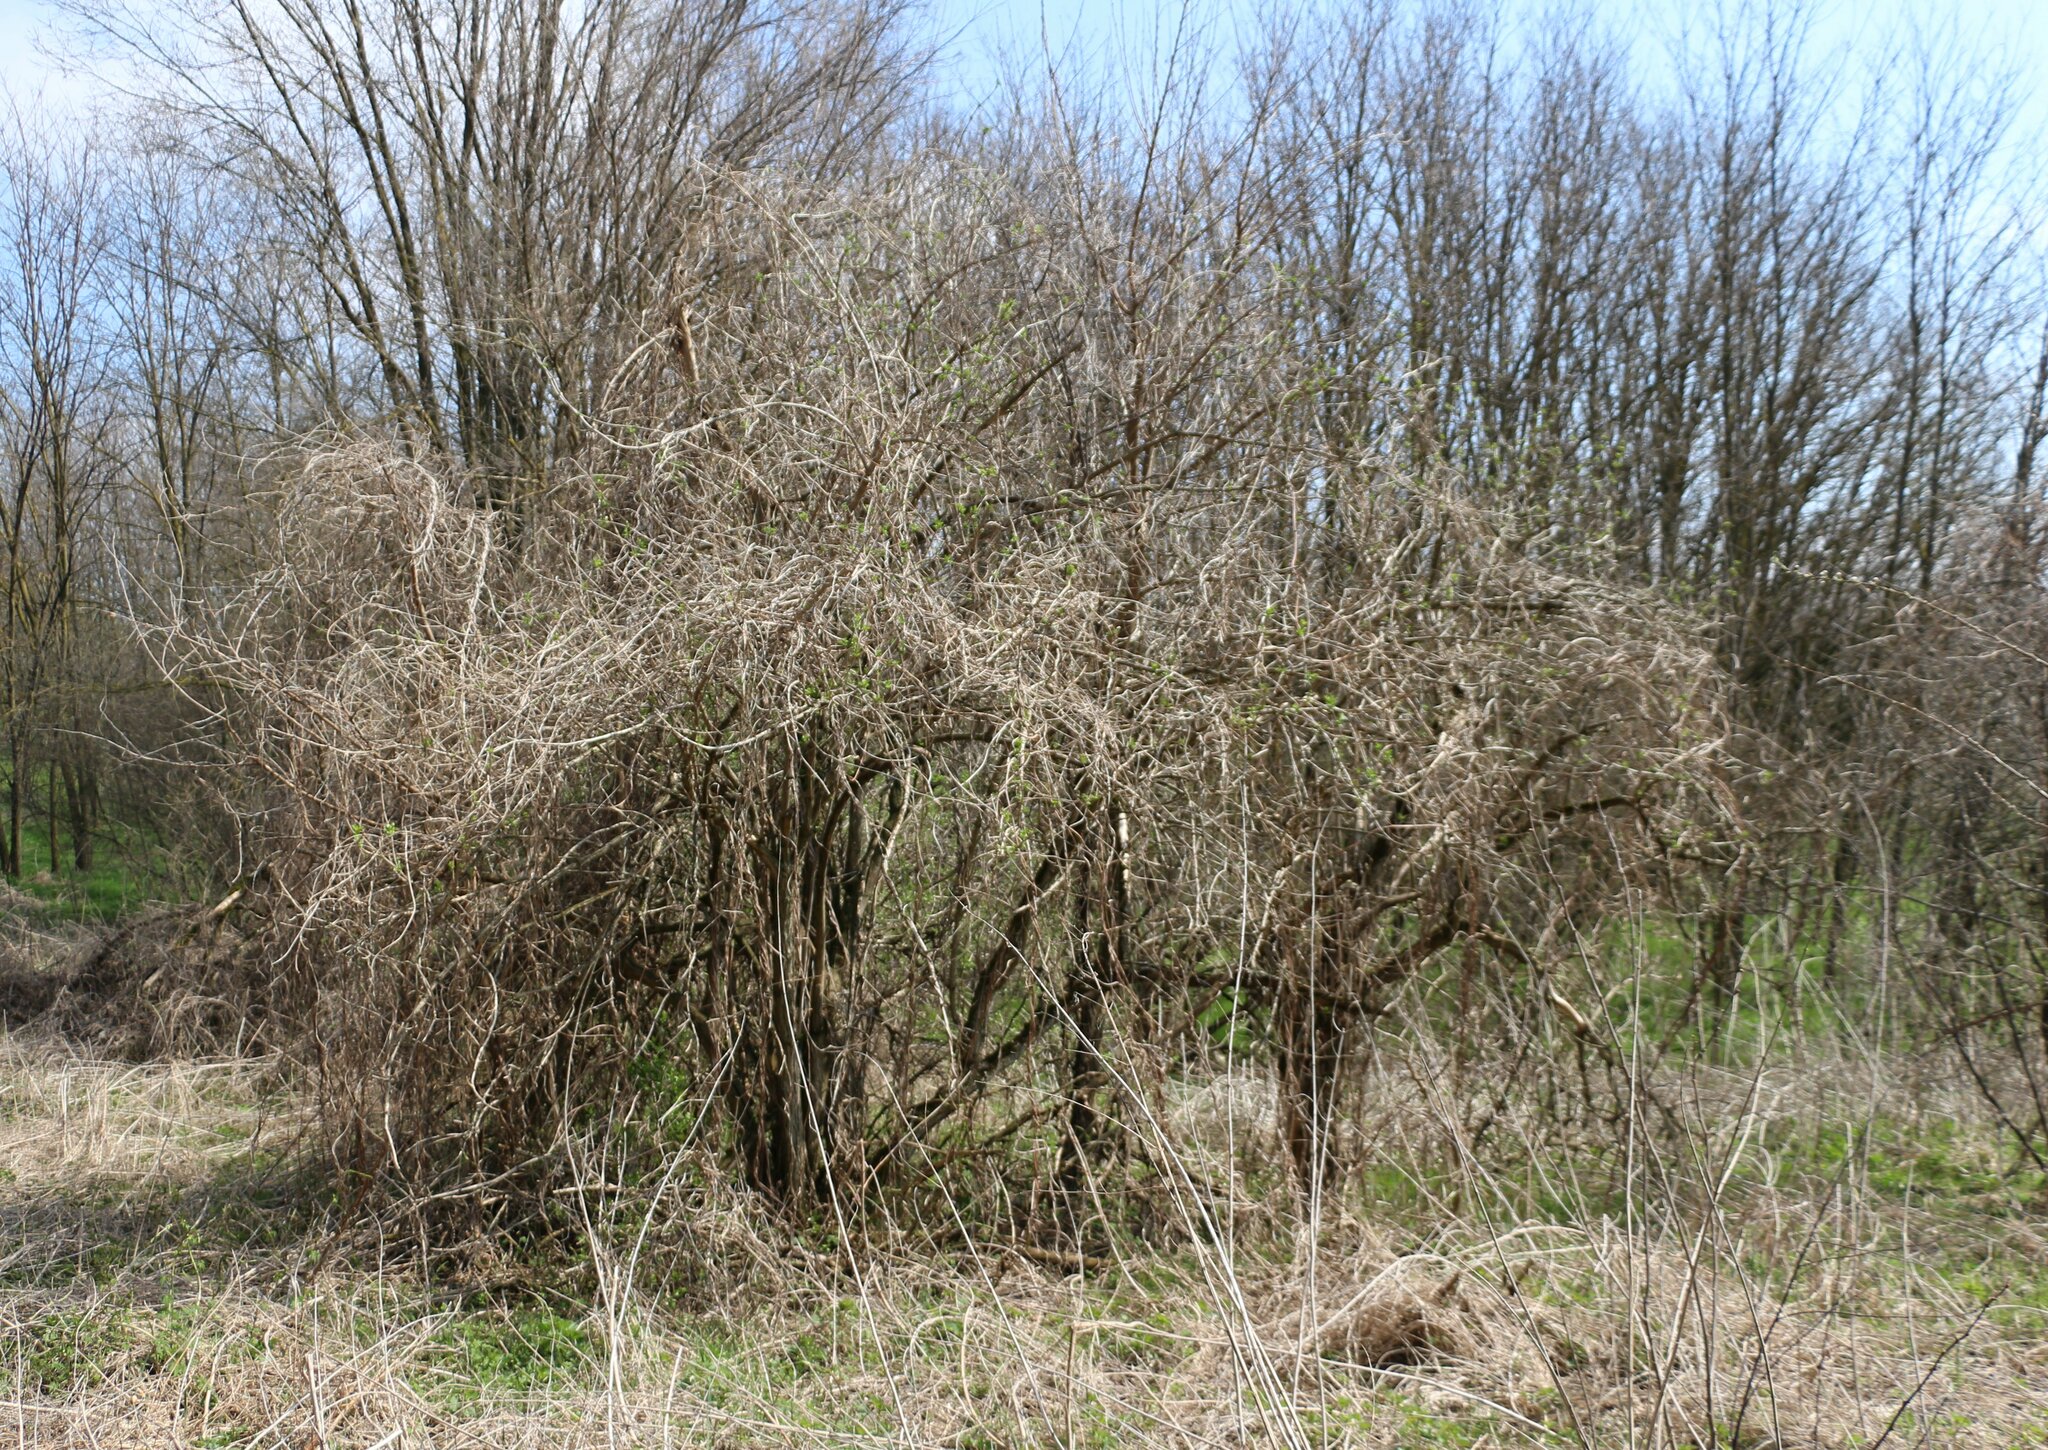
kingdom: Plantae
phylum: Tracheophyta
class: Magnoliopsida
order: Dipsacales
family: Viburnaceae
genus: Sambucus
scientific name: Sambucus nigra
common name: Elder
